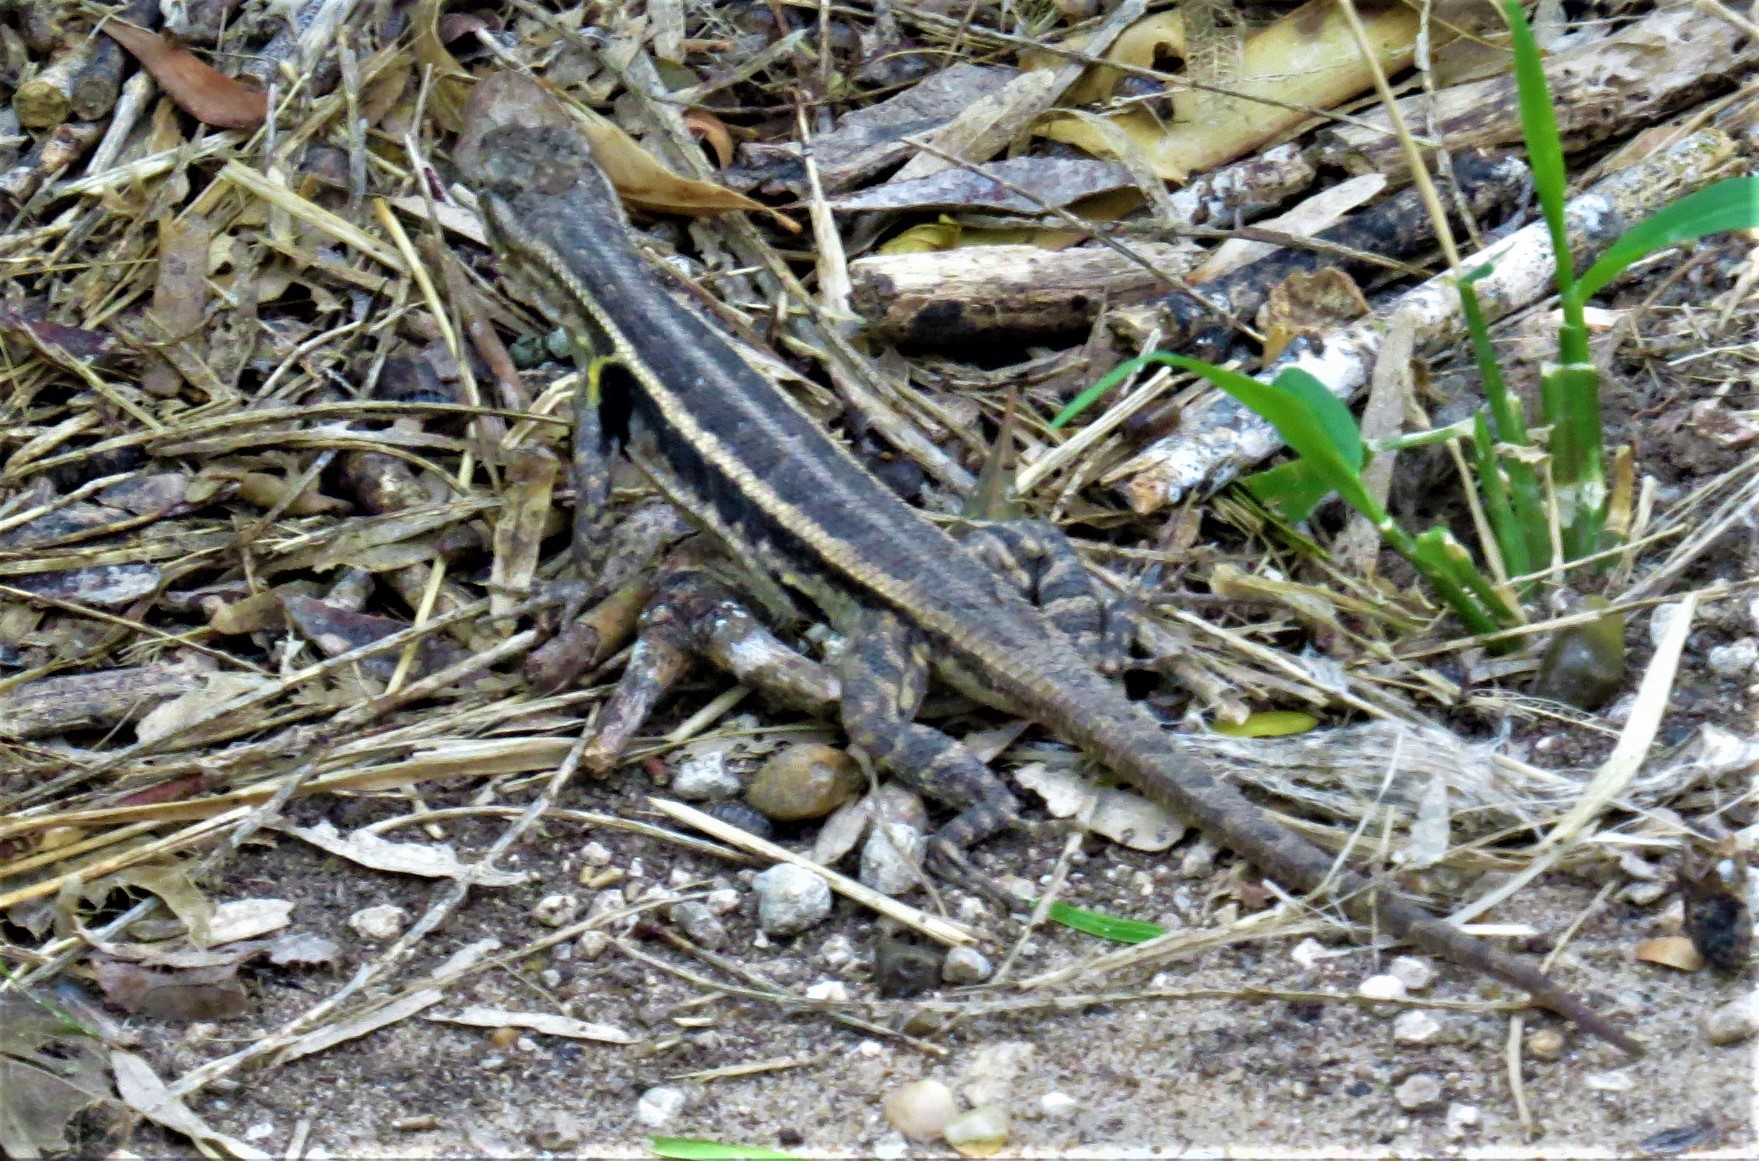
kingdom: Animalia
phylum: Chordata
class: Squamata
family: Phrynosomatidae
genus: Sceloporus
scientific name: Sceloporus variabilis
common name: Rosebelly lizard
